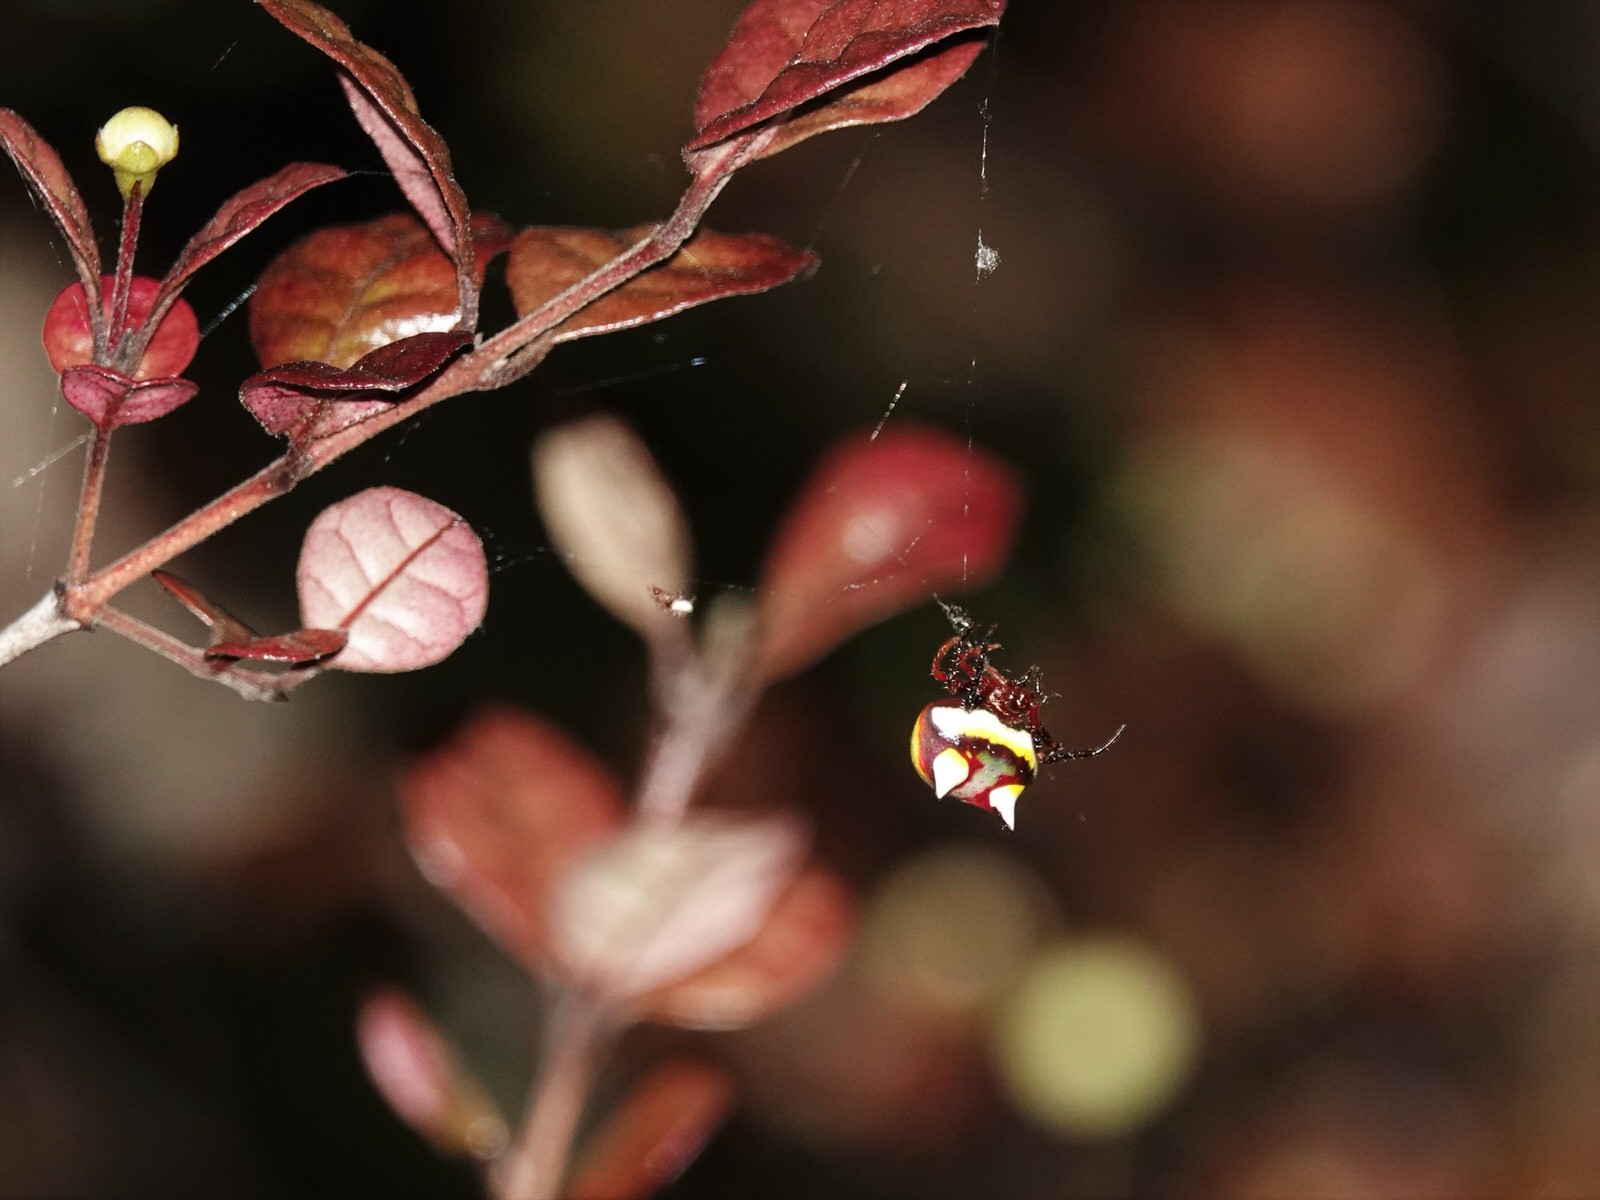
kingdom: Animalia
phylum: Arthropoda
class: Arachnida
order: Araneae
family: Araneidae
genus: Poecilopachys
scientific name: Poecilopachys australasia
